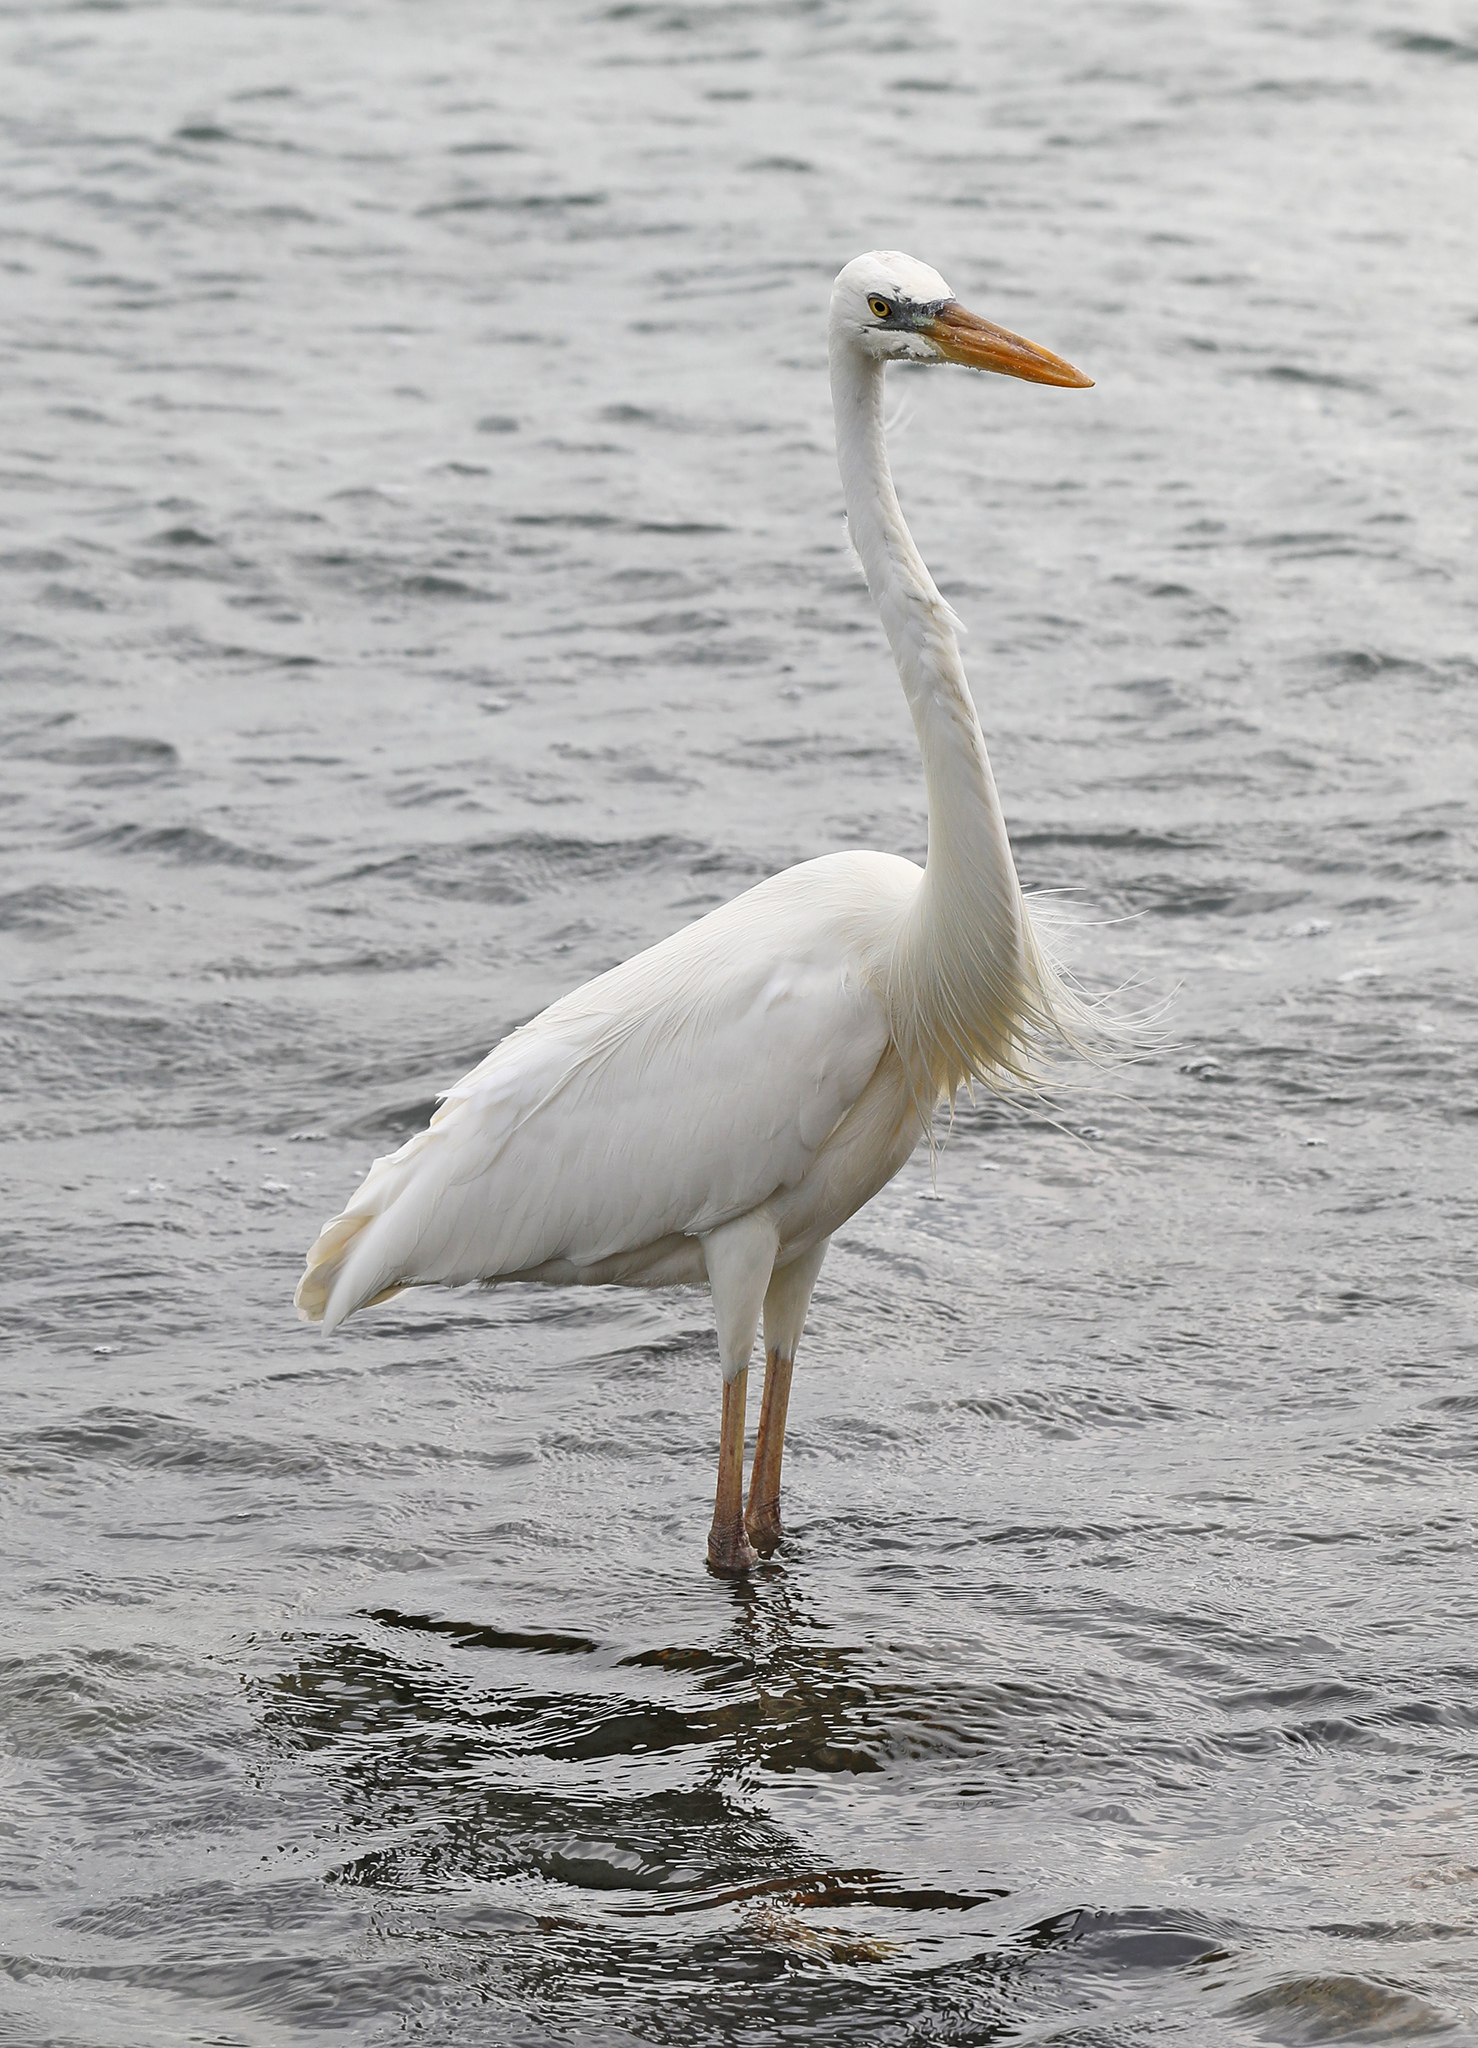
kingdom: Animalia
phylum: Chordata
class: Aves
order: Pelecaniformes
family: Ardeidae
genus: Ardea
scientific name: Ardea herodias
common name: Great blue heron
